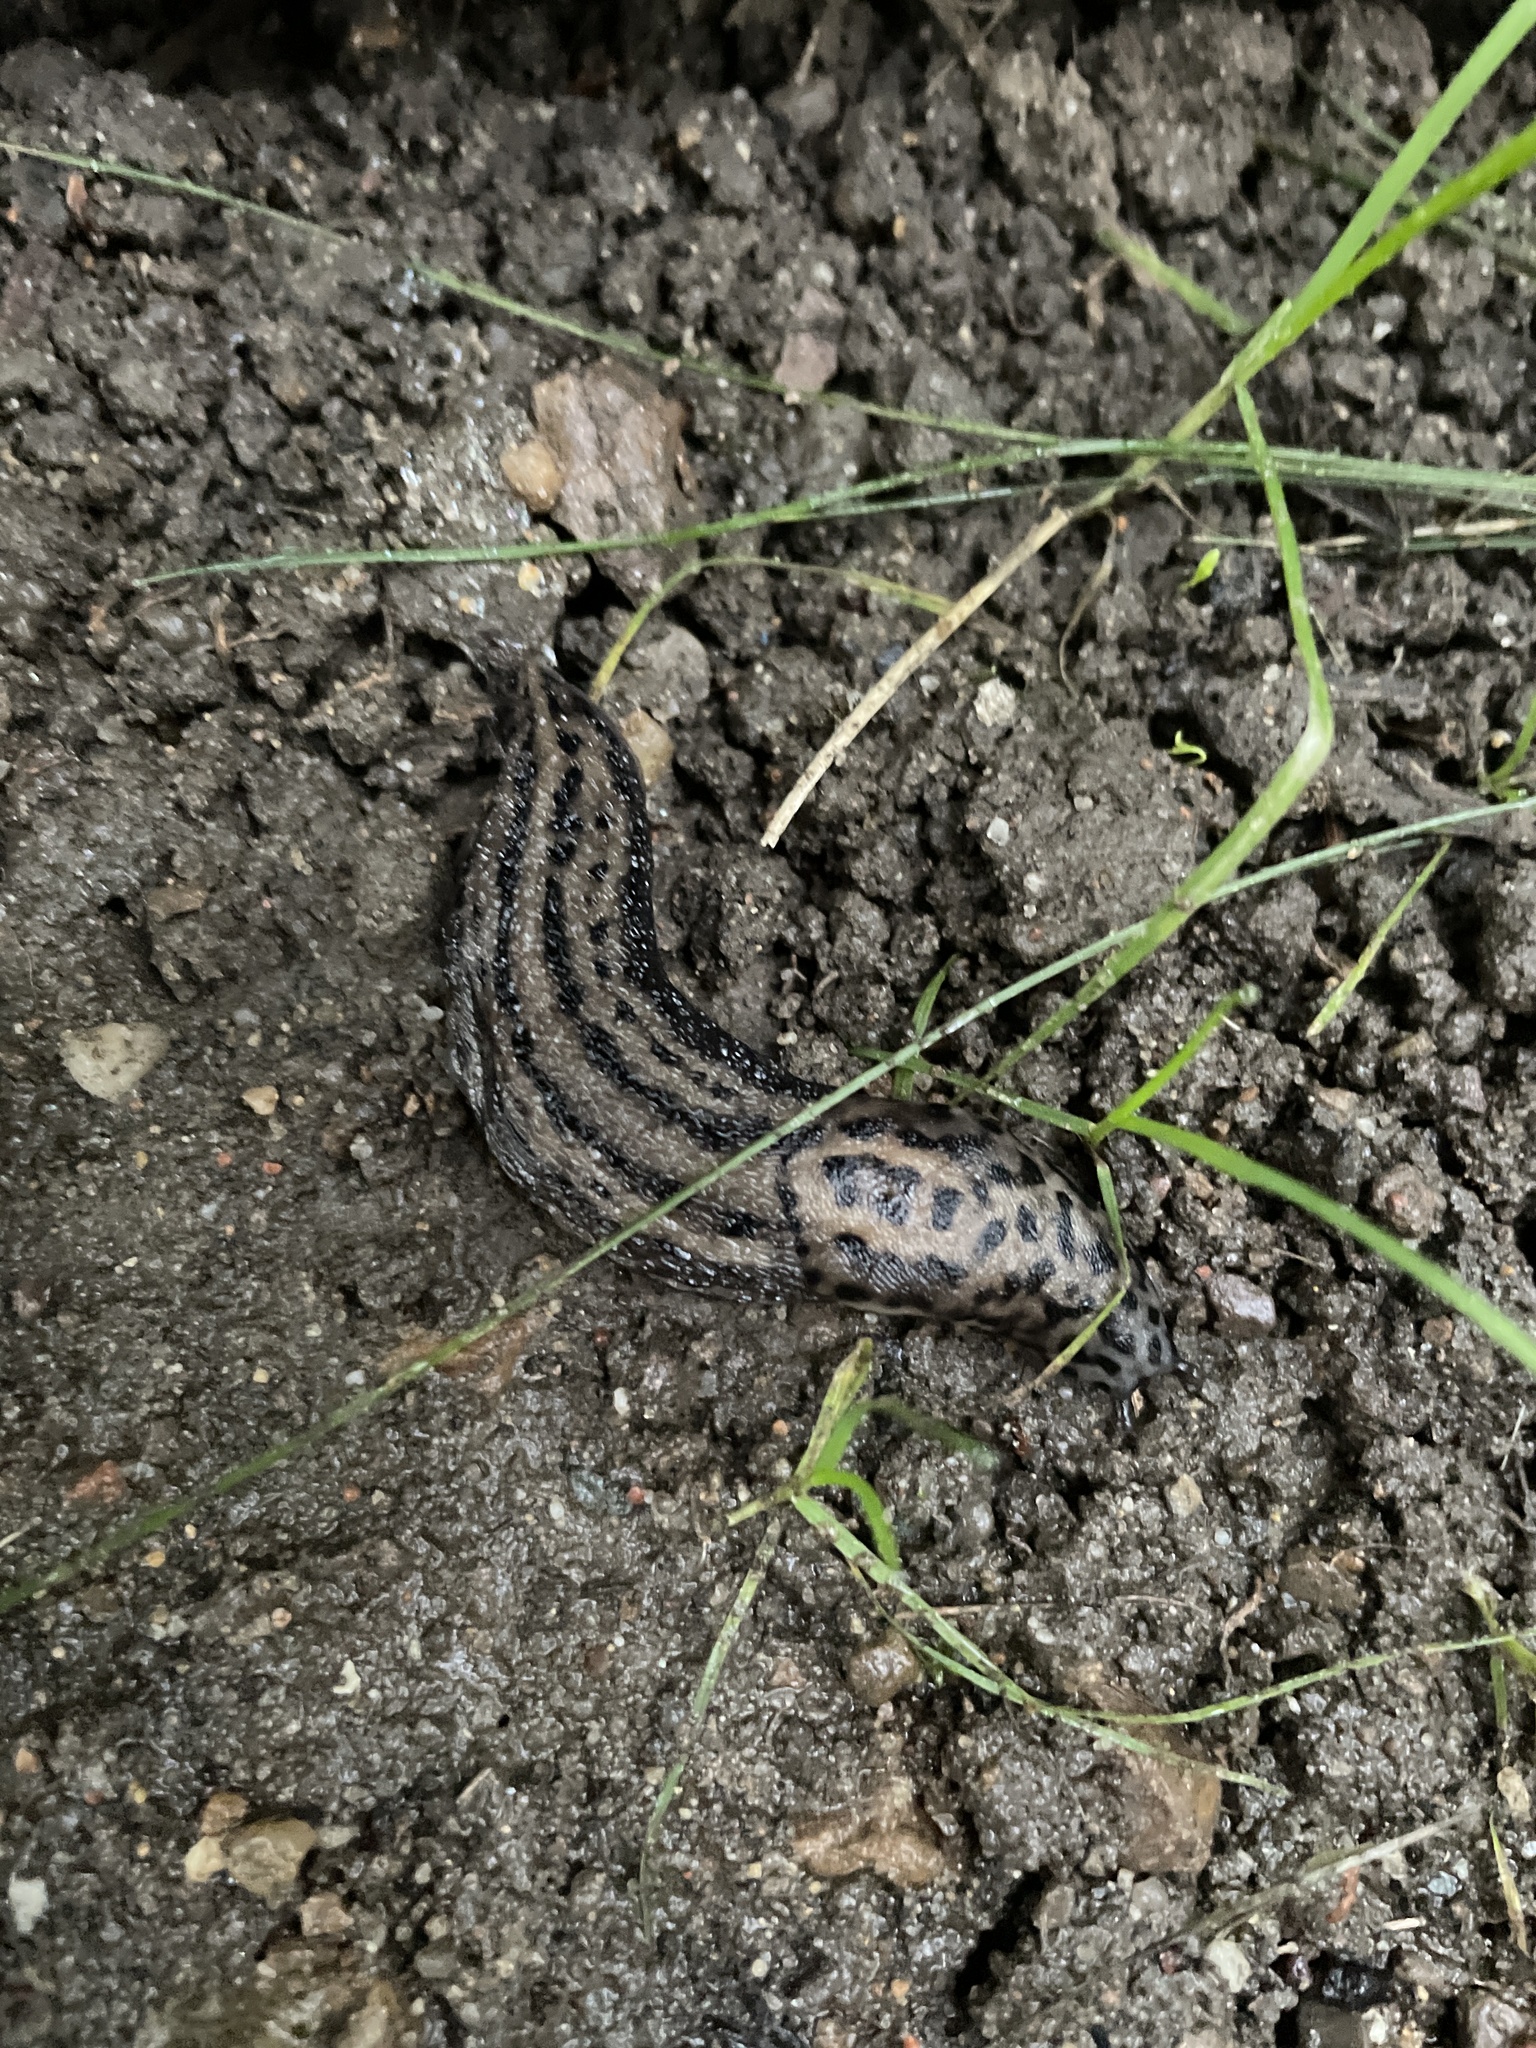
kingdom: Animalia
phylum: Mollusca
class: Gastropoda
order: Stylommatophora
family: Limacidae
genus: Limax
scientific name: Limax maximus
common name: Great grey slug
